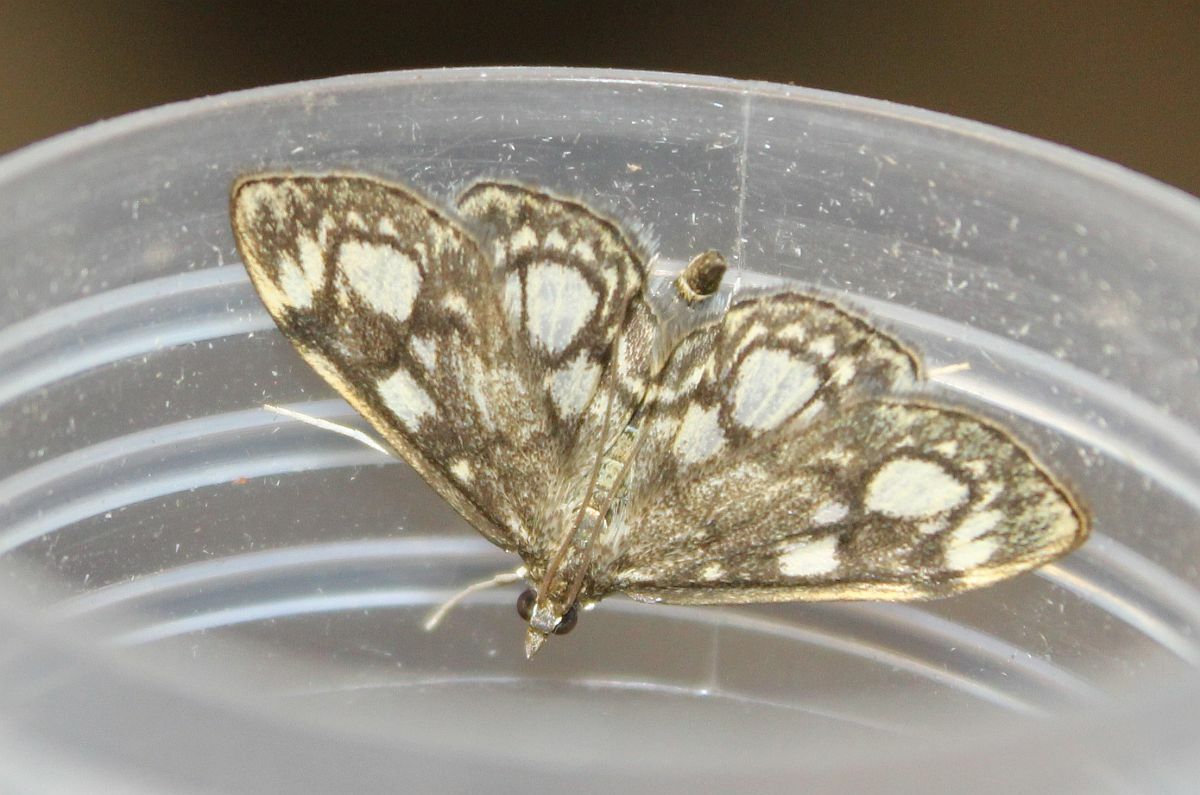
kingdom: Animalia
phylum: Arthropoda
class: Insecta
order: Lepidoptera
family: Crambidae
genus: Anania
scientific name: Anania coronata
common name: Elder pearl
